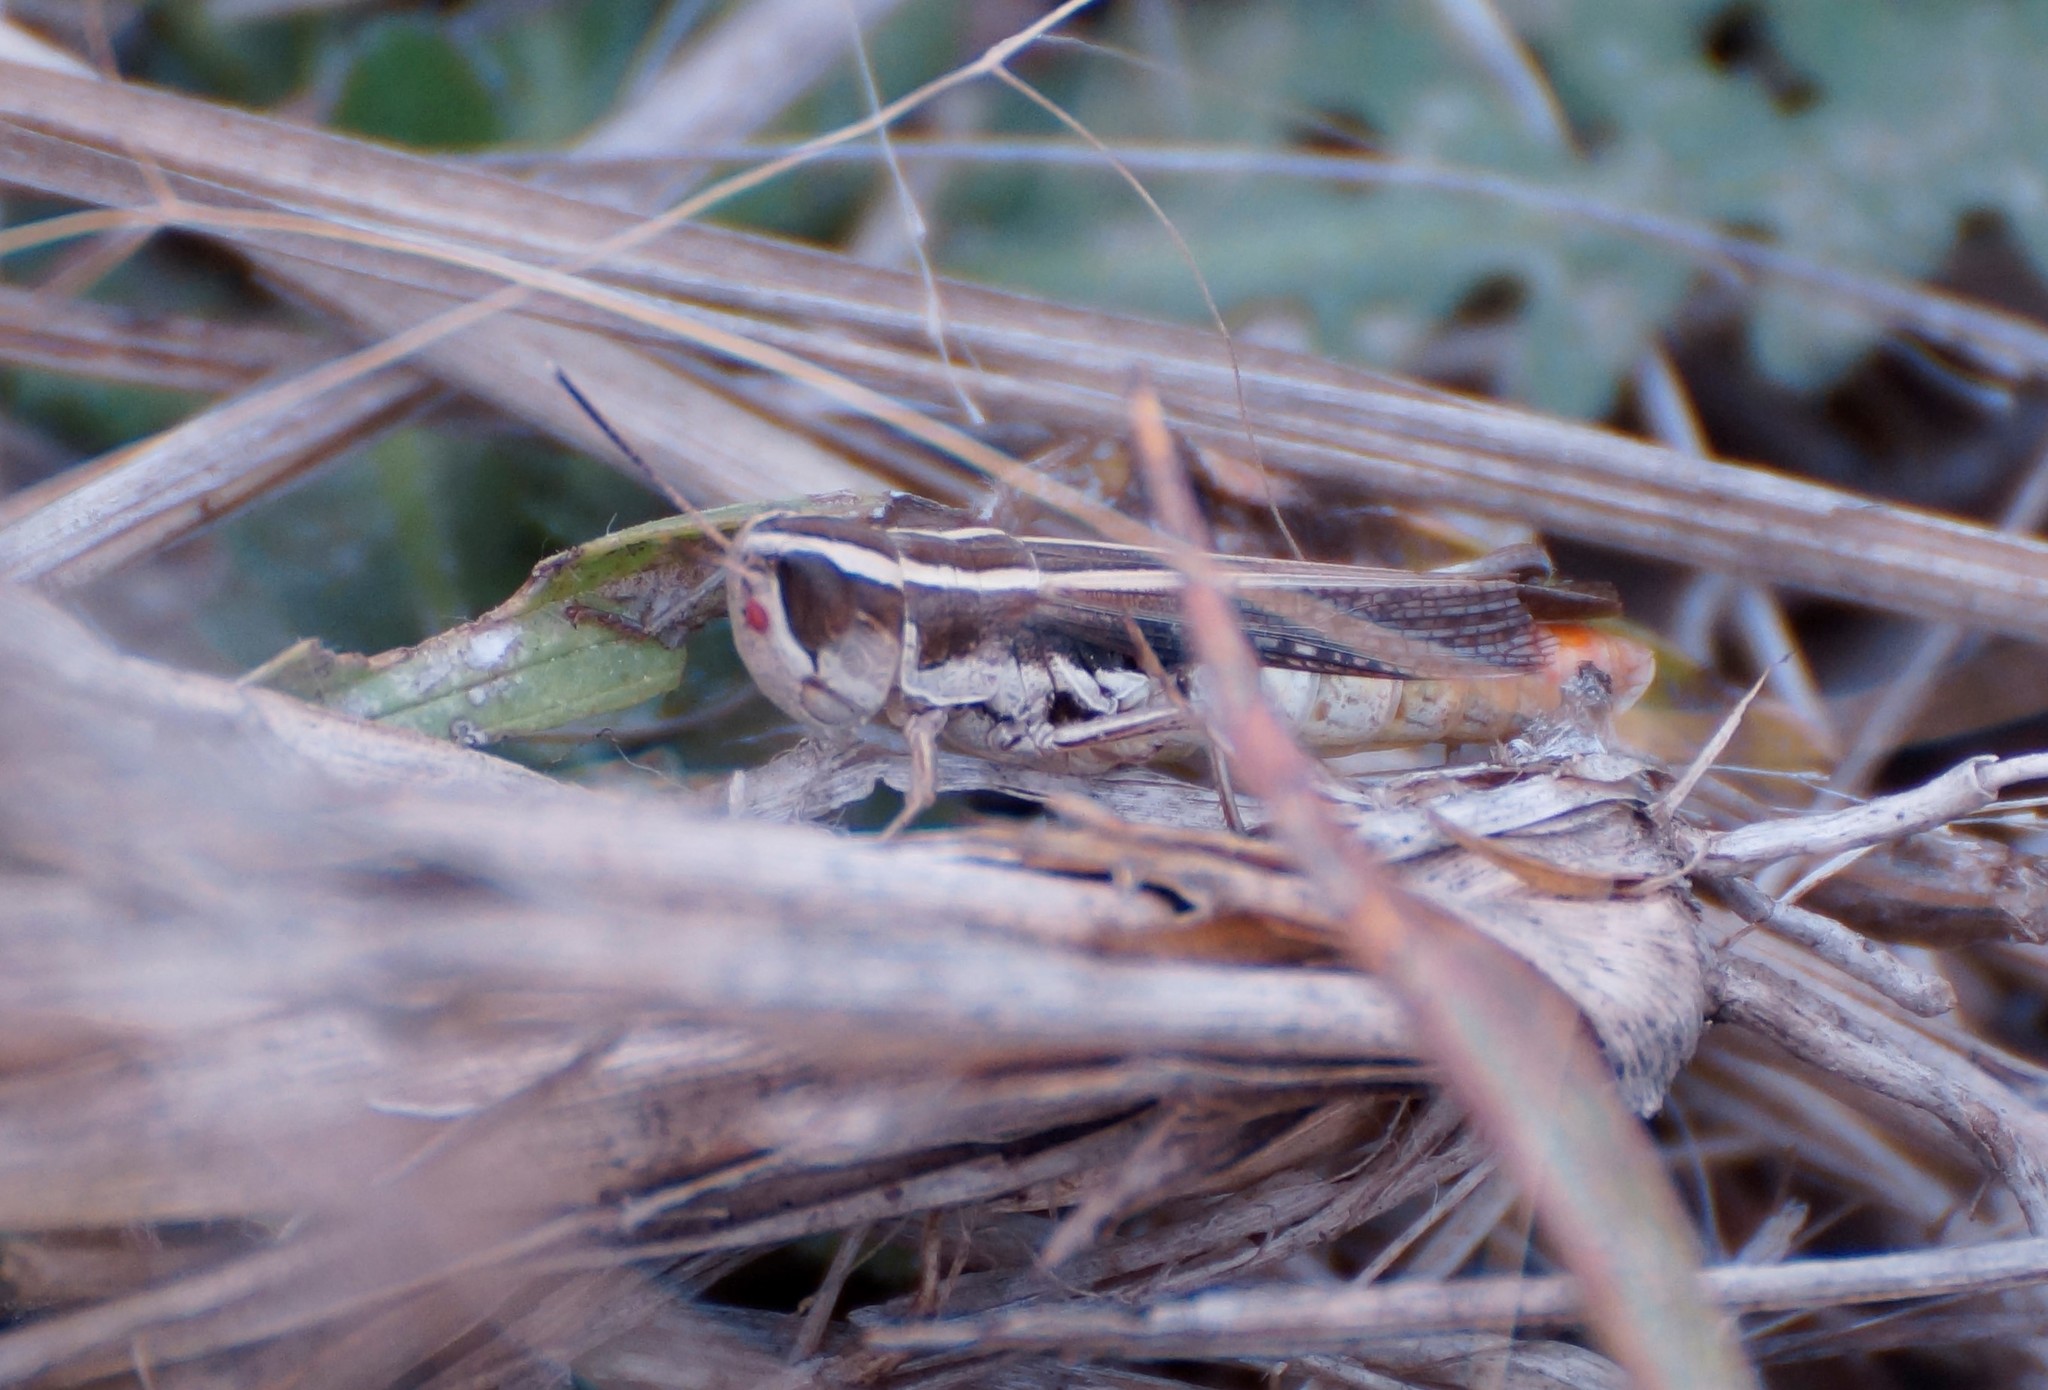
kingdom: Animalia
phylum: Arthropoda
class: Insecta
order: Orthoptera
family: Acrididae
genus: Macrotona
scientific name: Macrotona securiformis
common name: Inland macrotona
